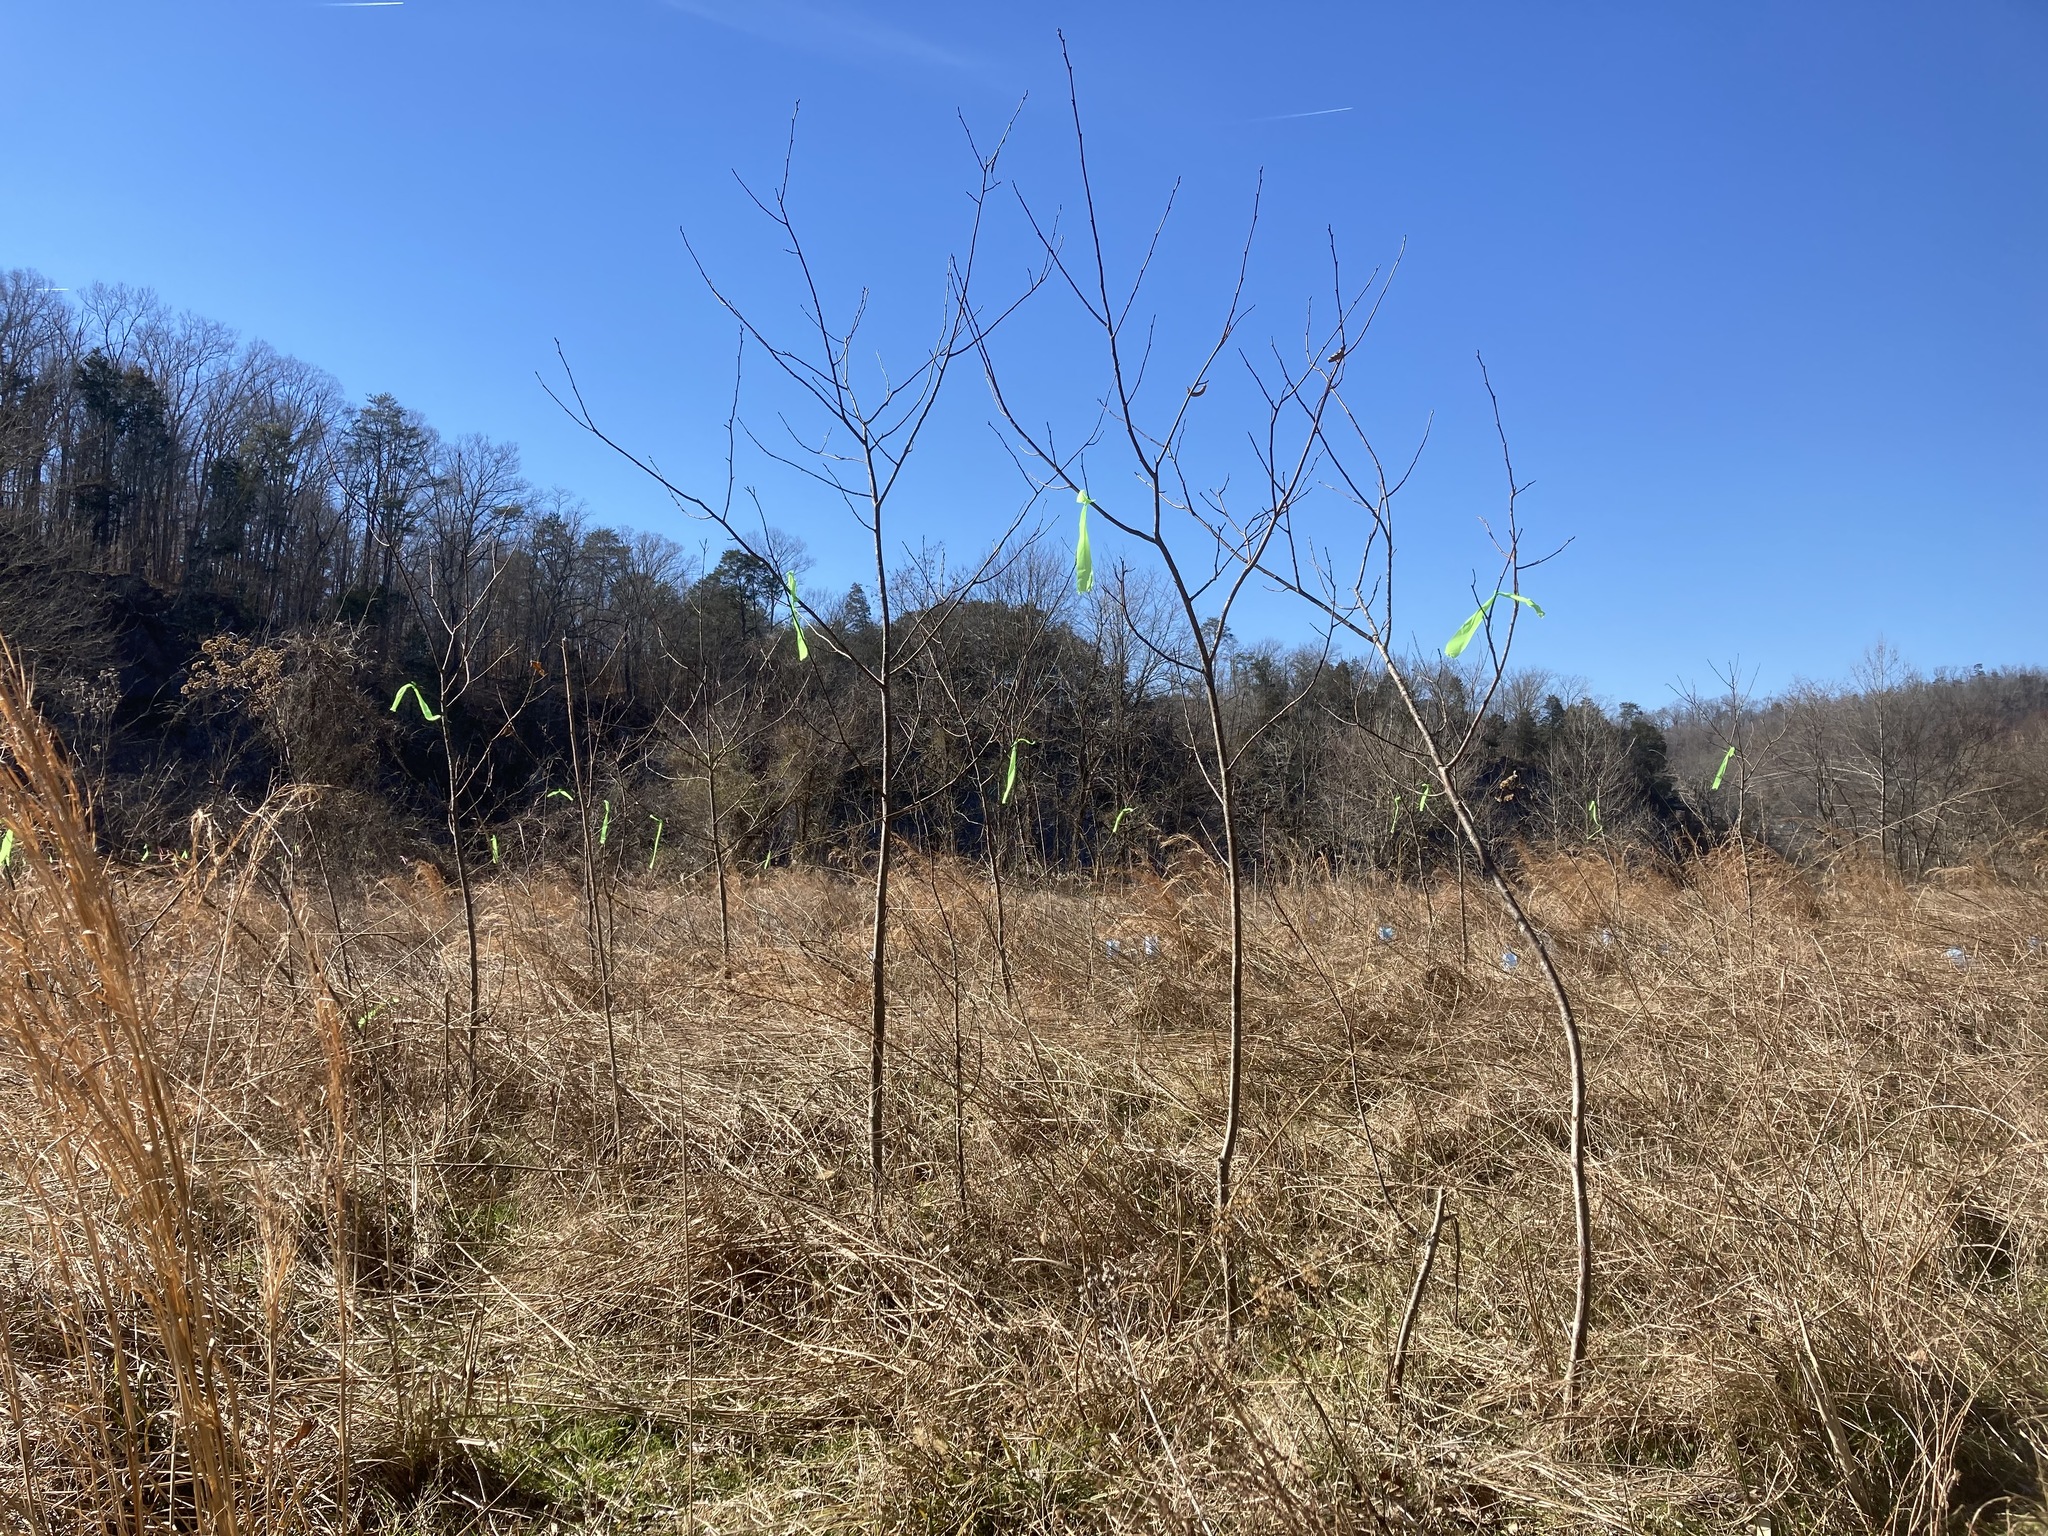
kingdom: Fungi
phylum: Ascomycota
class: Sordariomycetes
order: Diaporthales
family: Cryphonectriaceae
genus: Cryphonectria
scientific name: Cryphonectria parasitica
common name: Chestnut blight
